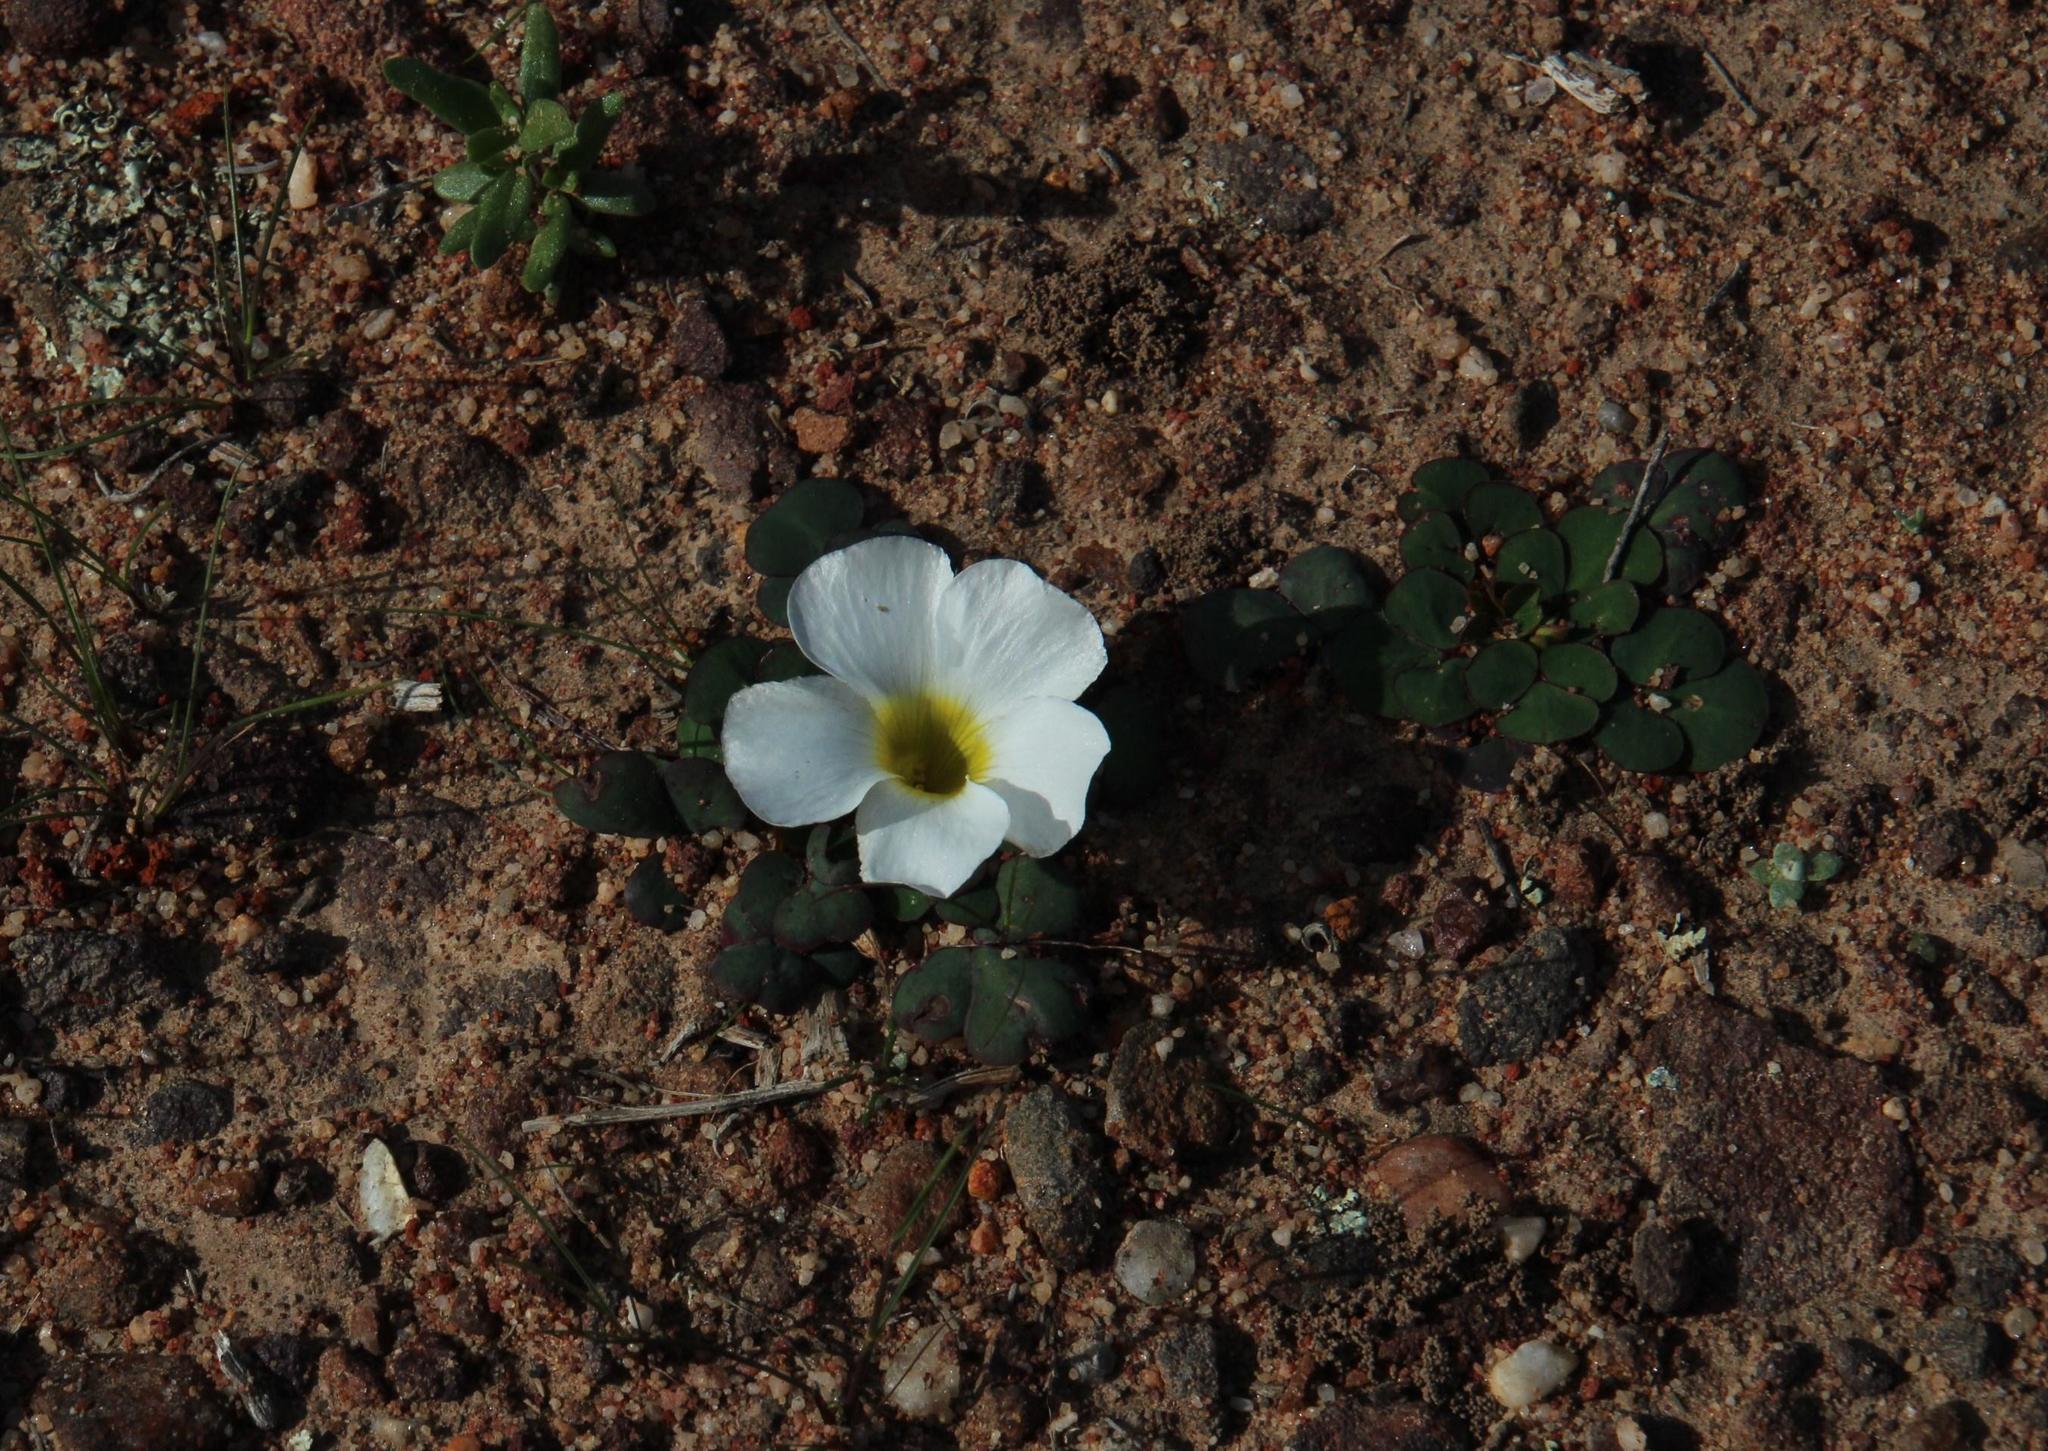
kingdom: Plantae
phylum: Tracheophyta
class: Magnoliopsida
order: Oxalidales
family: Oxalidaceae
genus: Oxalis
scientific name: Oxalis purpurea
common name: Purple woodsorrel
